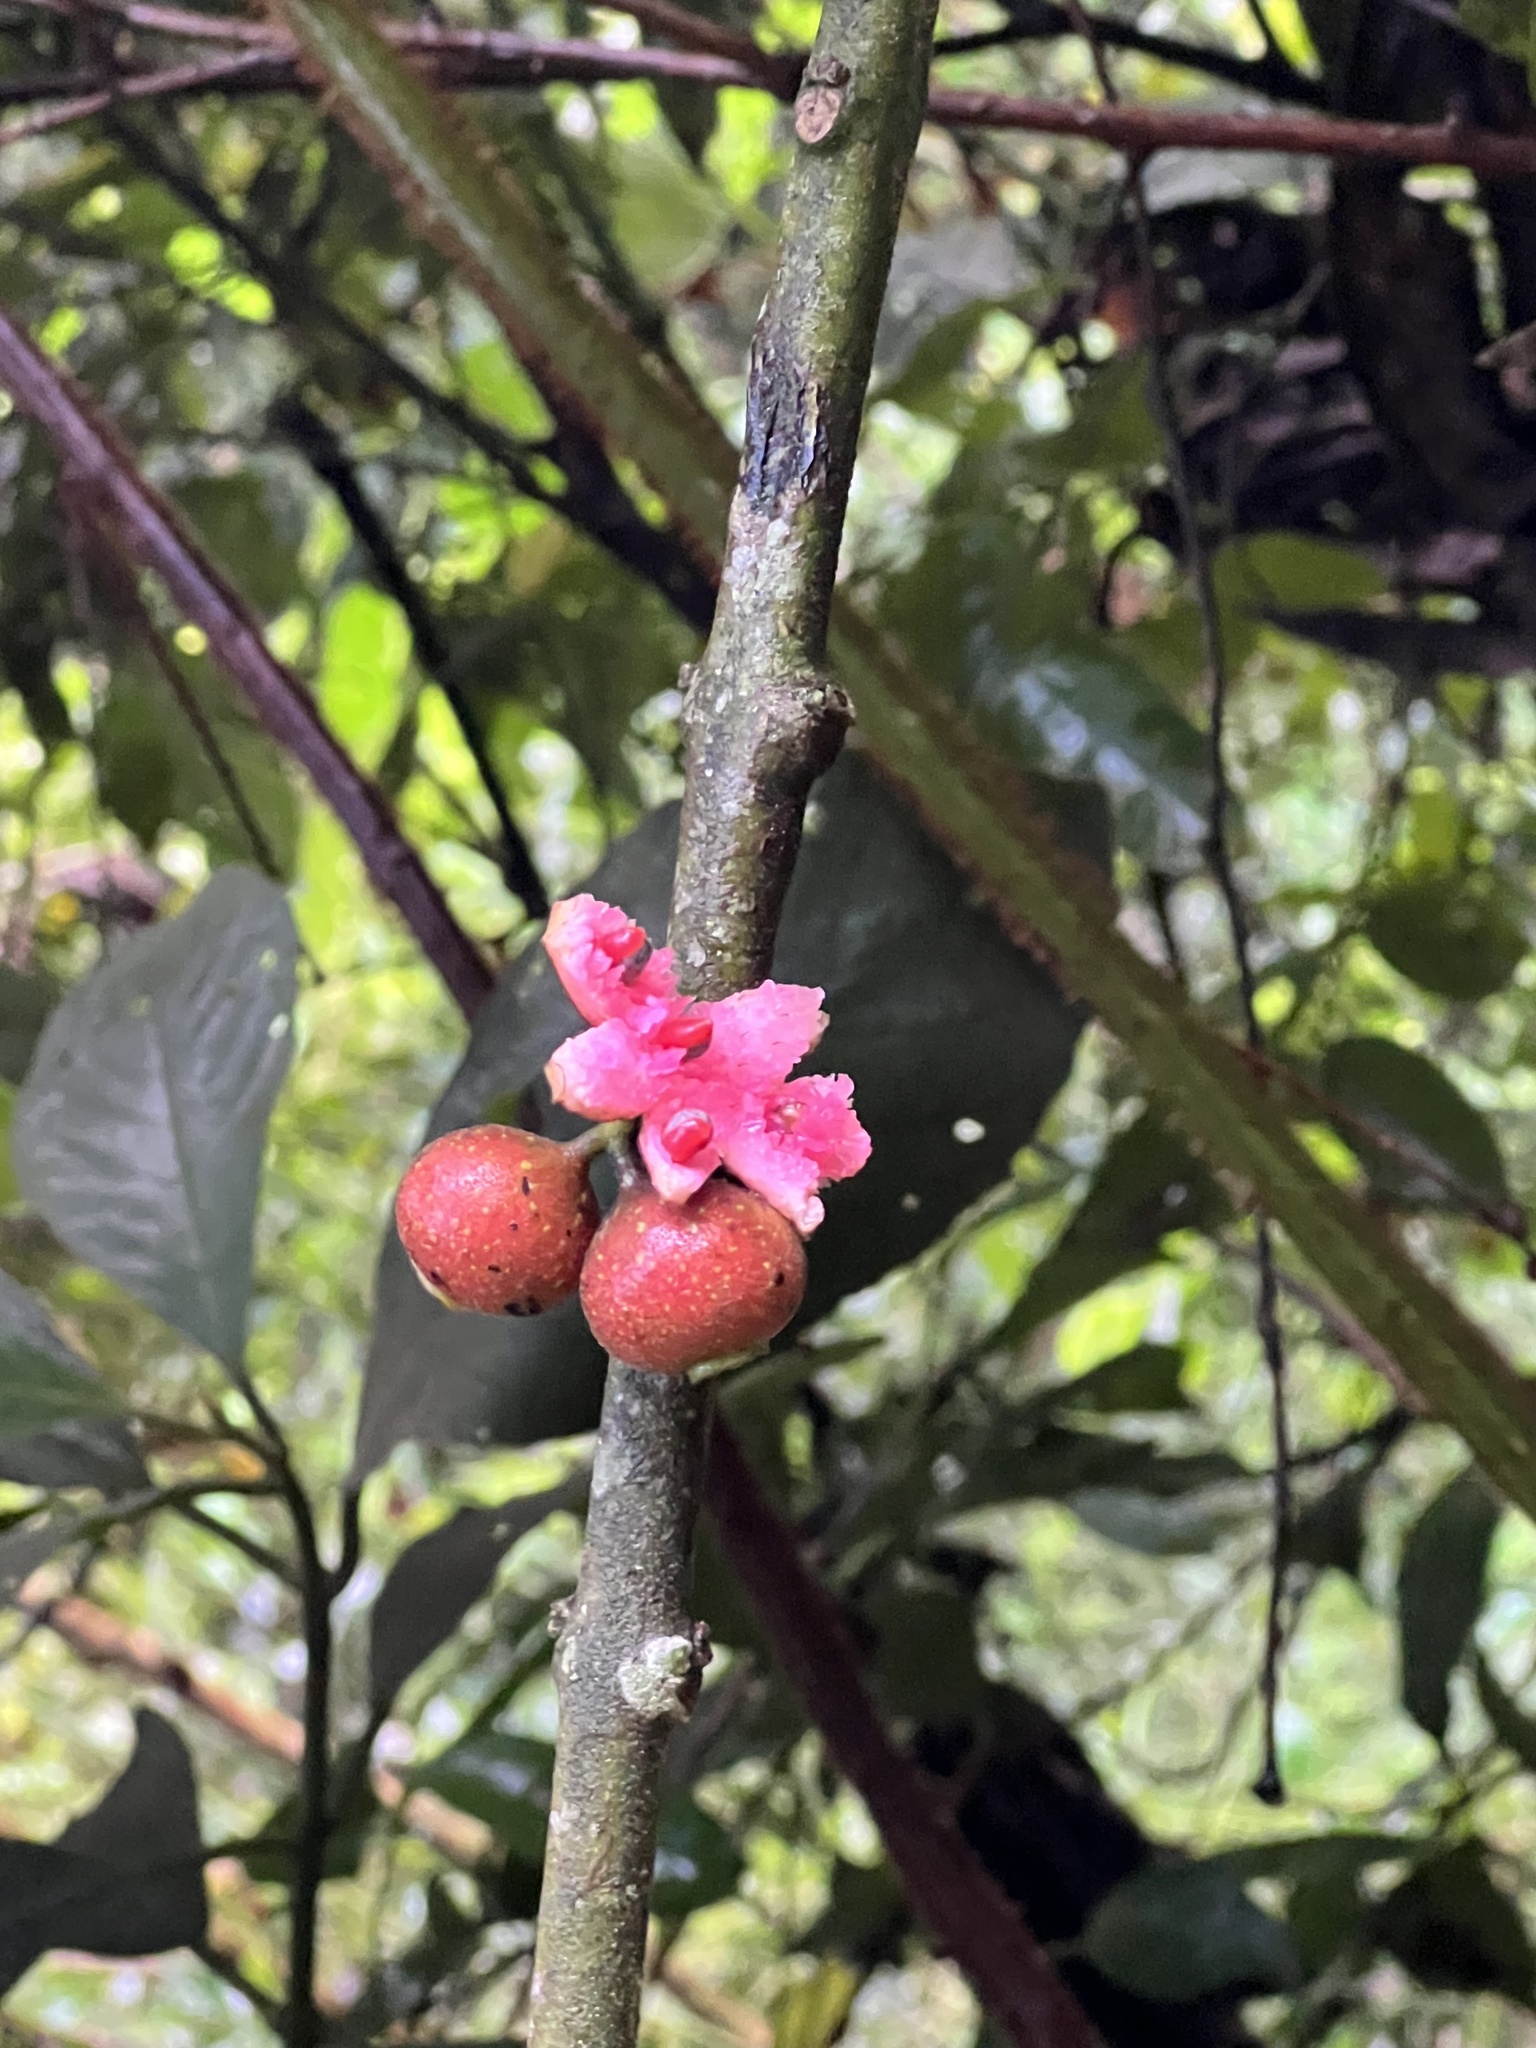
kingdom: Plantae
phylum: Tracheophyta
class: Magnoliopsida
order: Laurales
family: Siparunaceae
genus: Siparuna
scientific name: Siparuna lepidota
